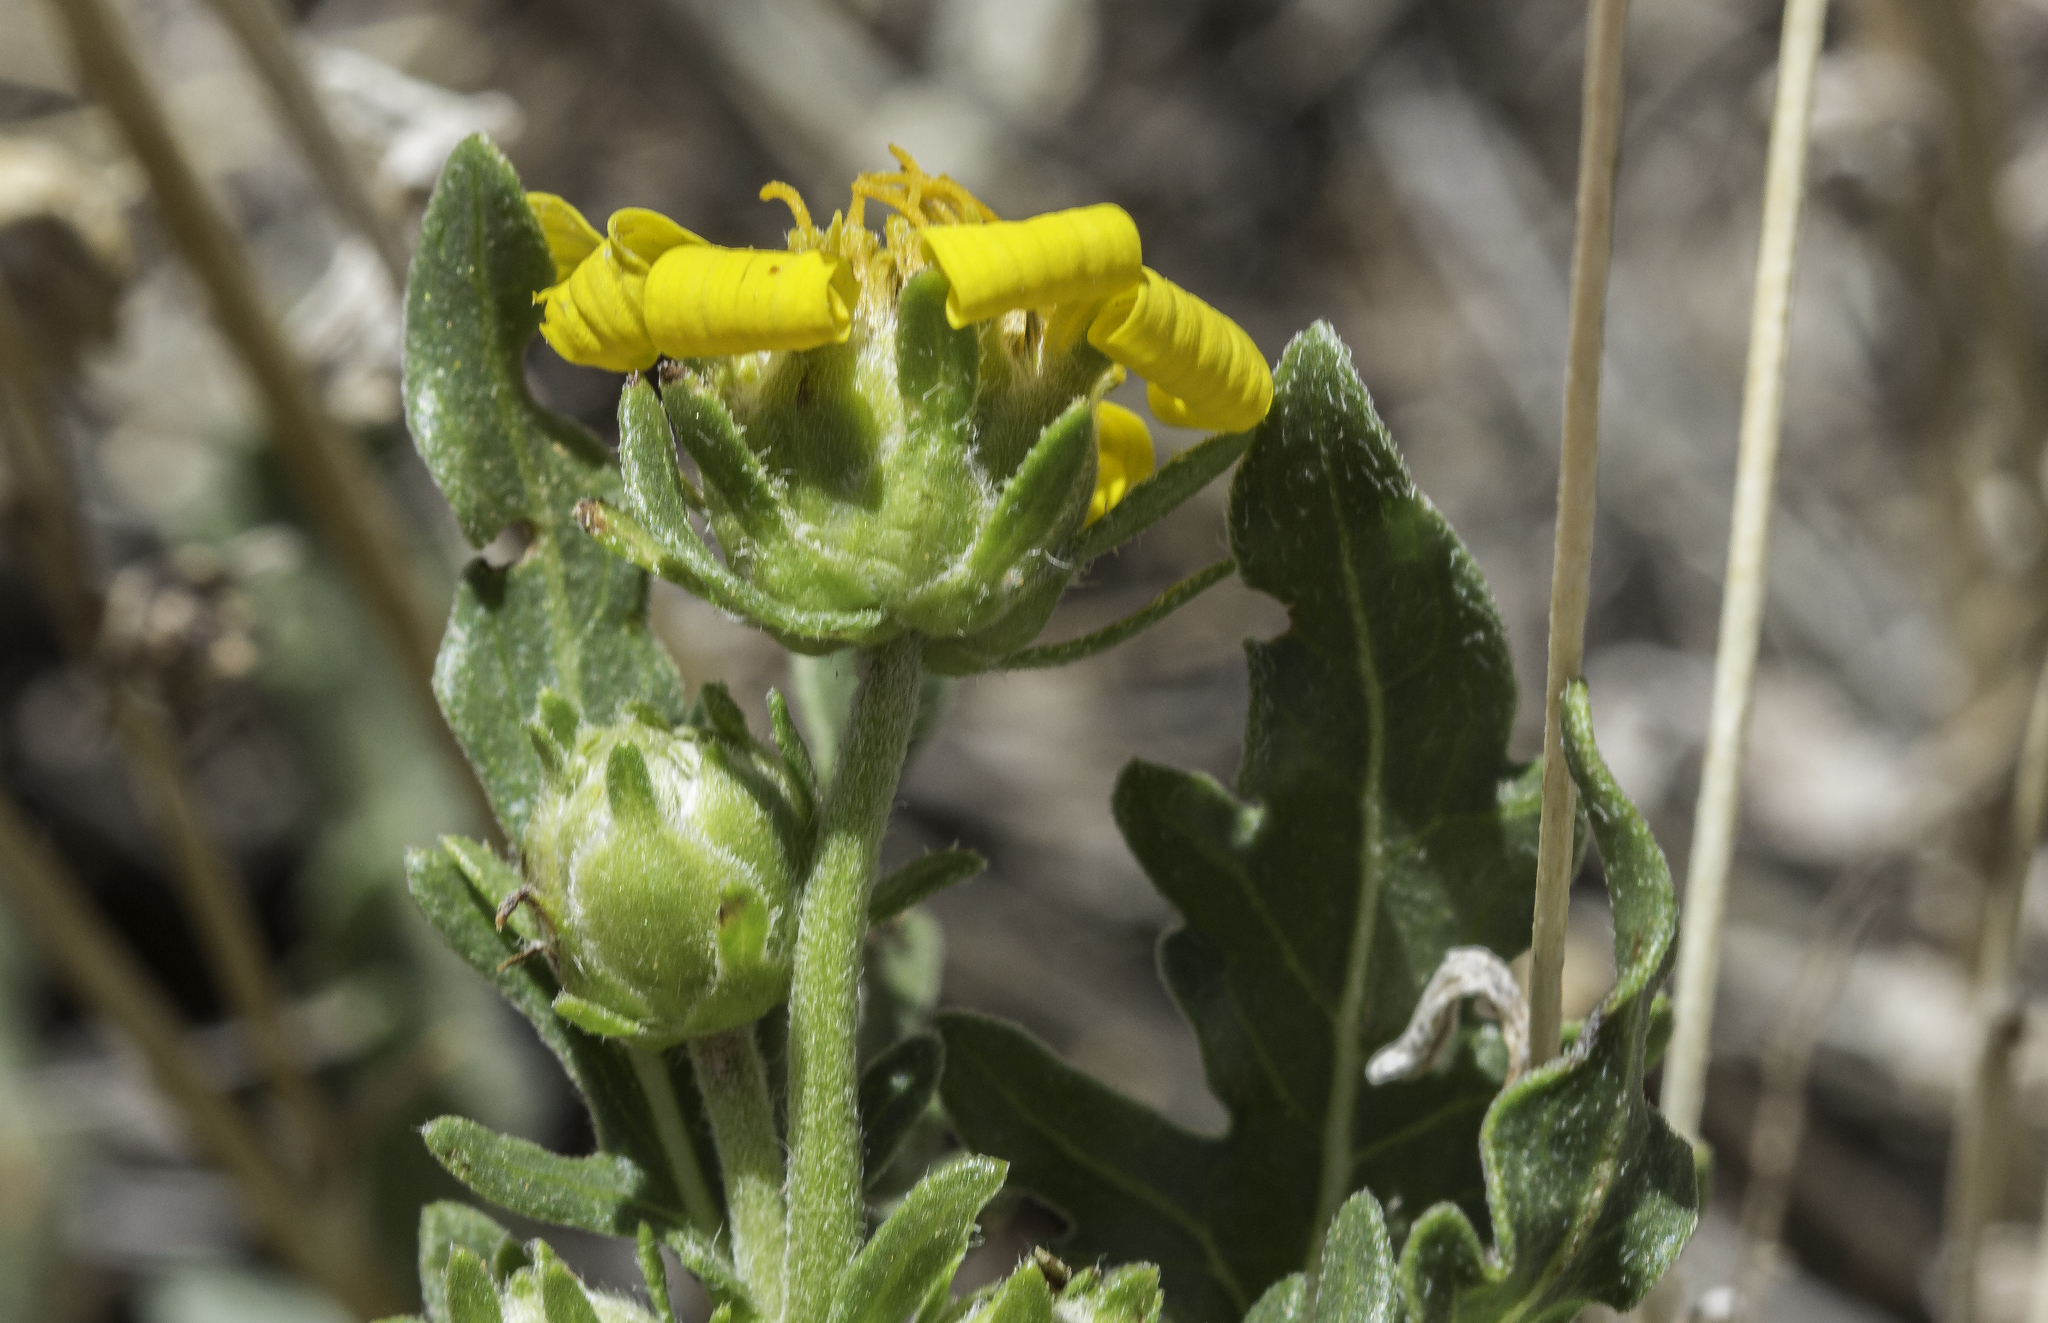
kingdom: Plantae
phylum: Tracheophyta
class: Magnoliopsida
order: Asterales
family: Asteraceae
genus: Engelmannia
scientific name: Engelmannia peristenia
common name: Engelmann's daisy
